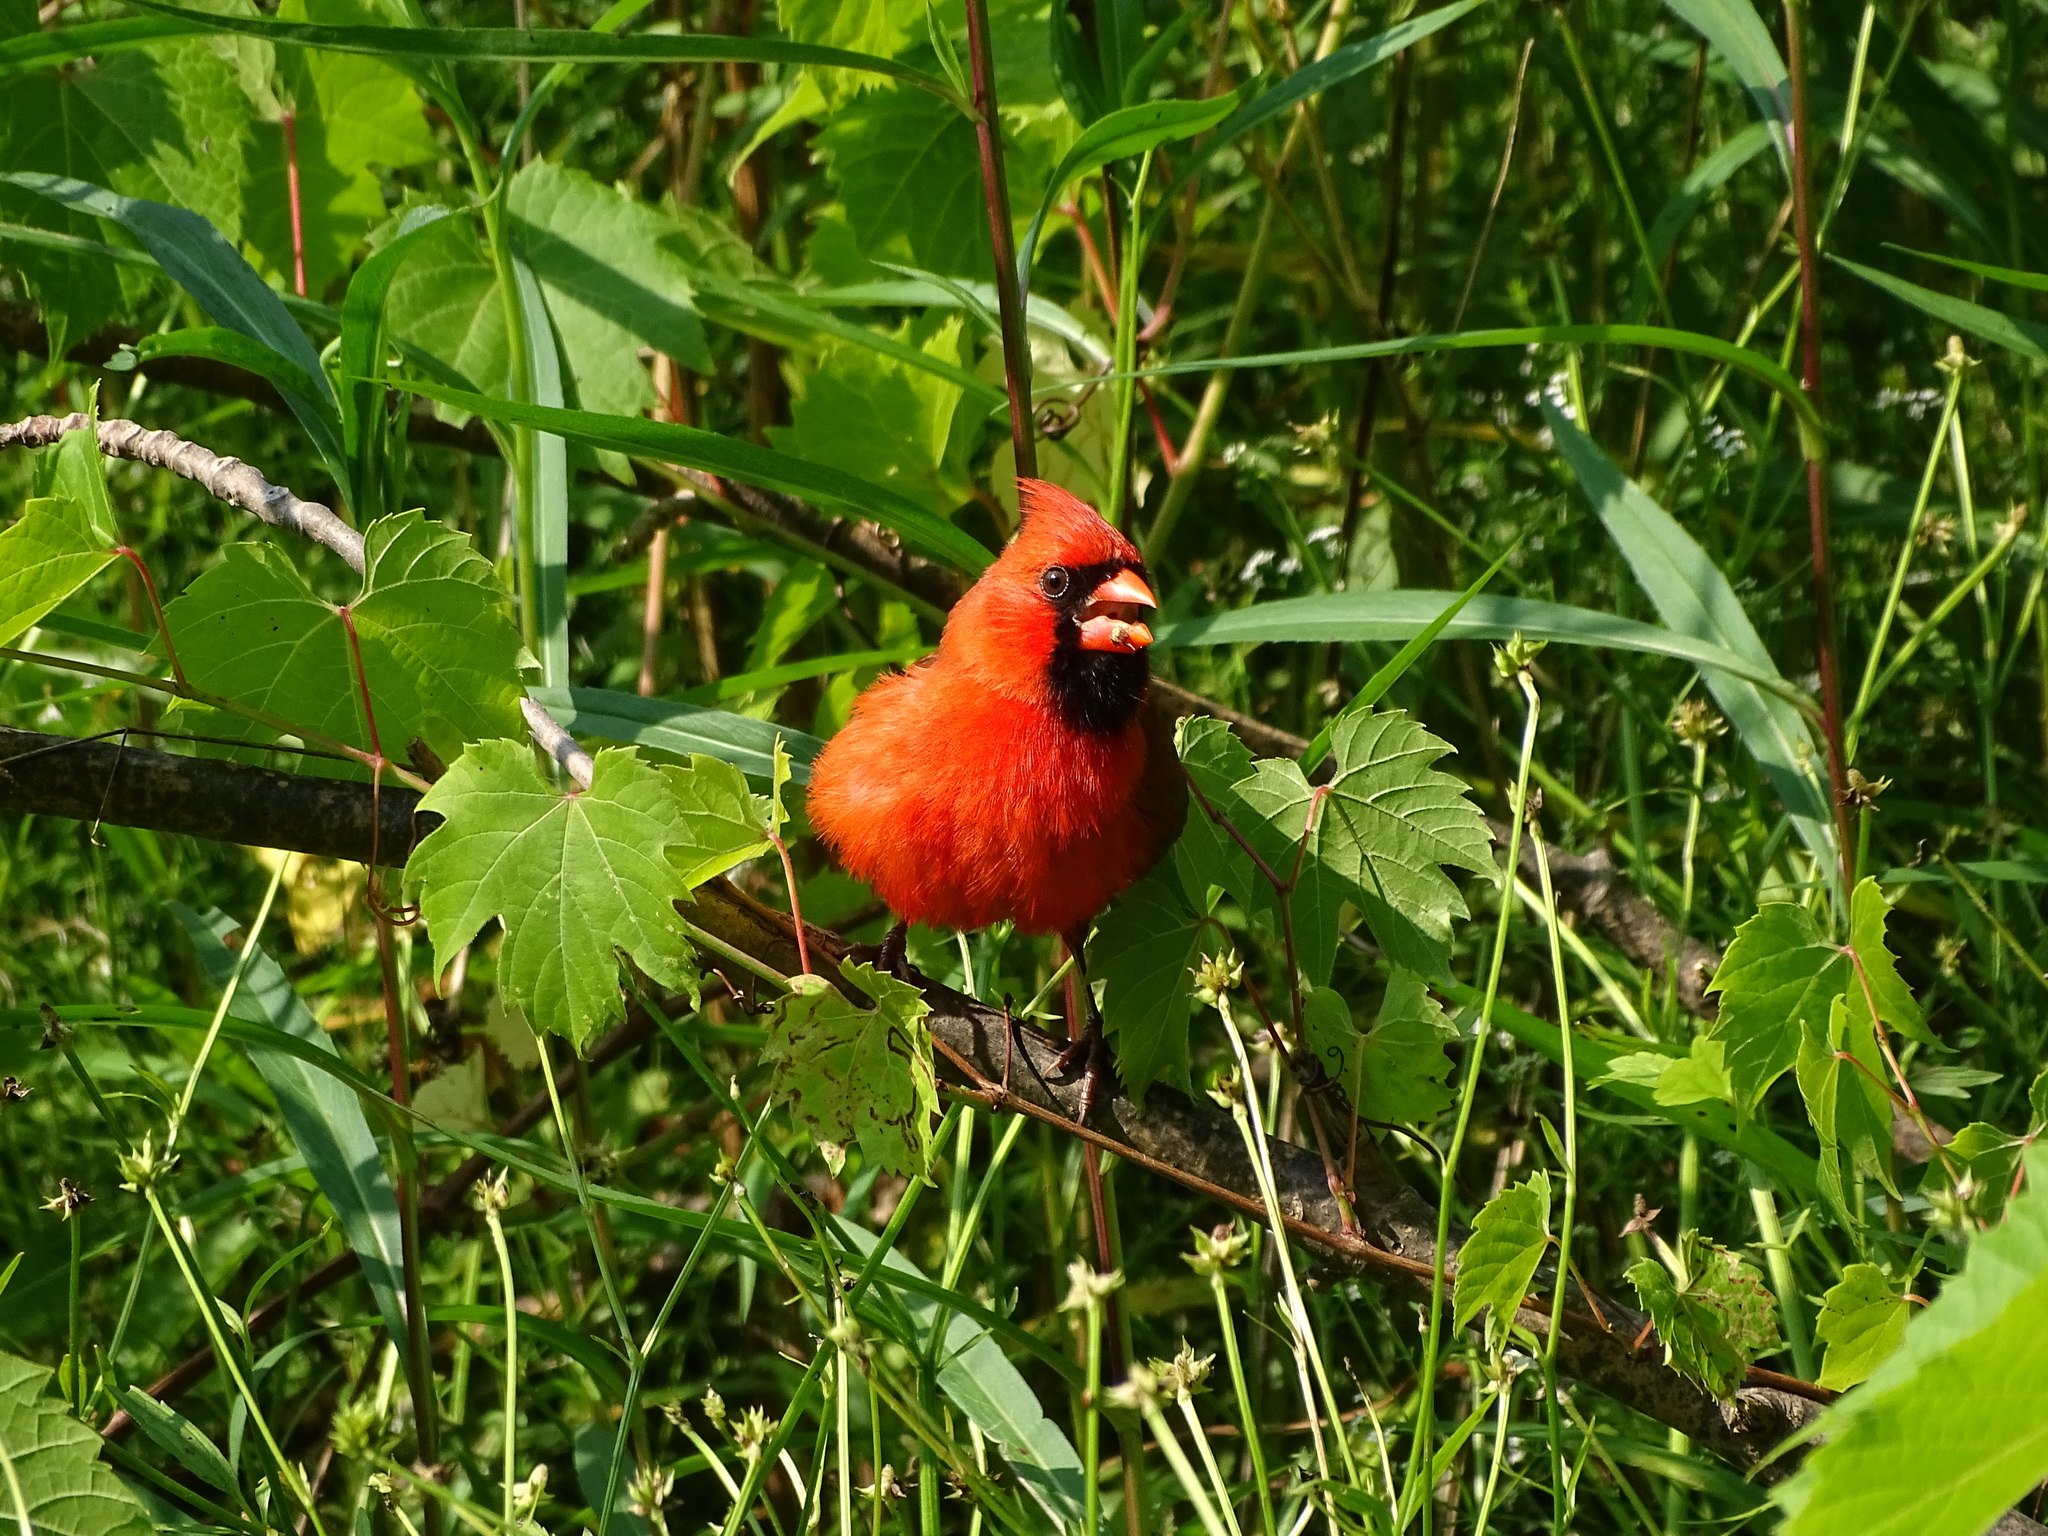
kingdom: Animalia
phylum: Chordata
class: Aves
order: Passeriformes
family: Cardinalidae
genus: Cardinalis
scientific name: Cardinalis cardinalis
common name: Northern cardinal
